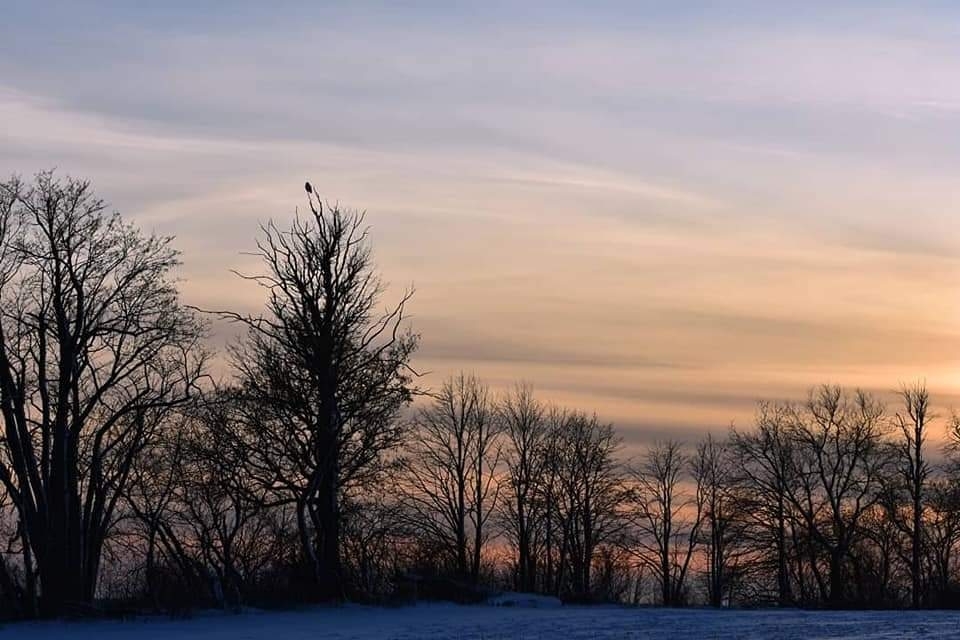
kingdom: Animalia
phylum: Chordata
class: Aves
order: Strigiformes
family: Strigidae
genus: Bubo
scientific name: Bubo scandiacus
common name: Snowy owl
